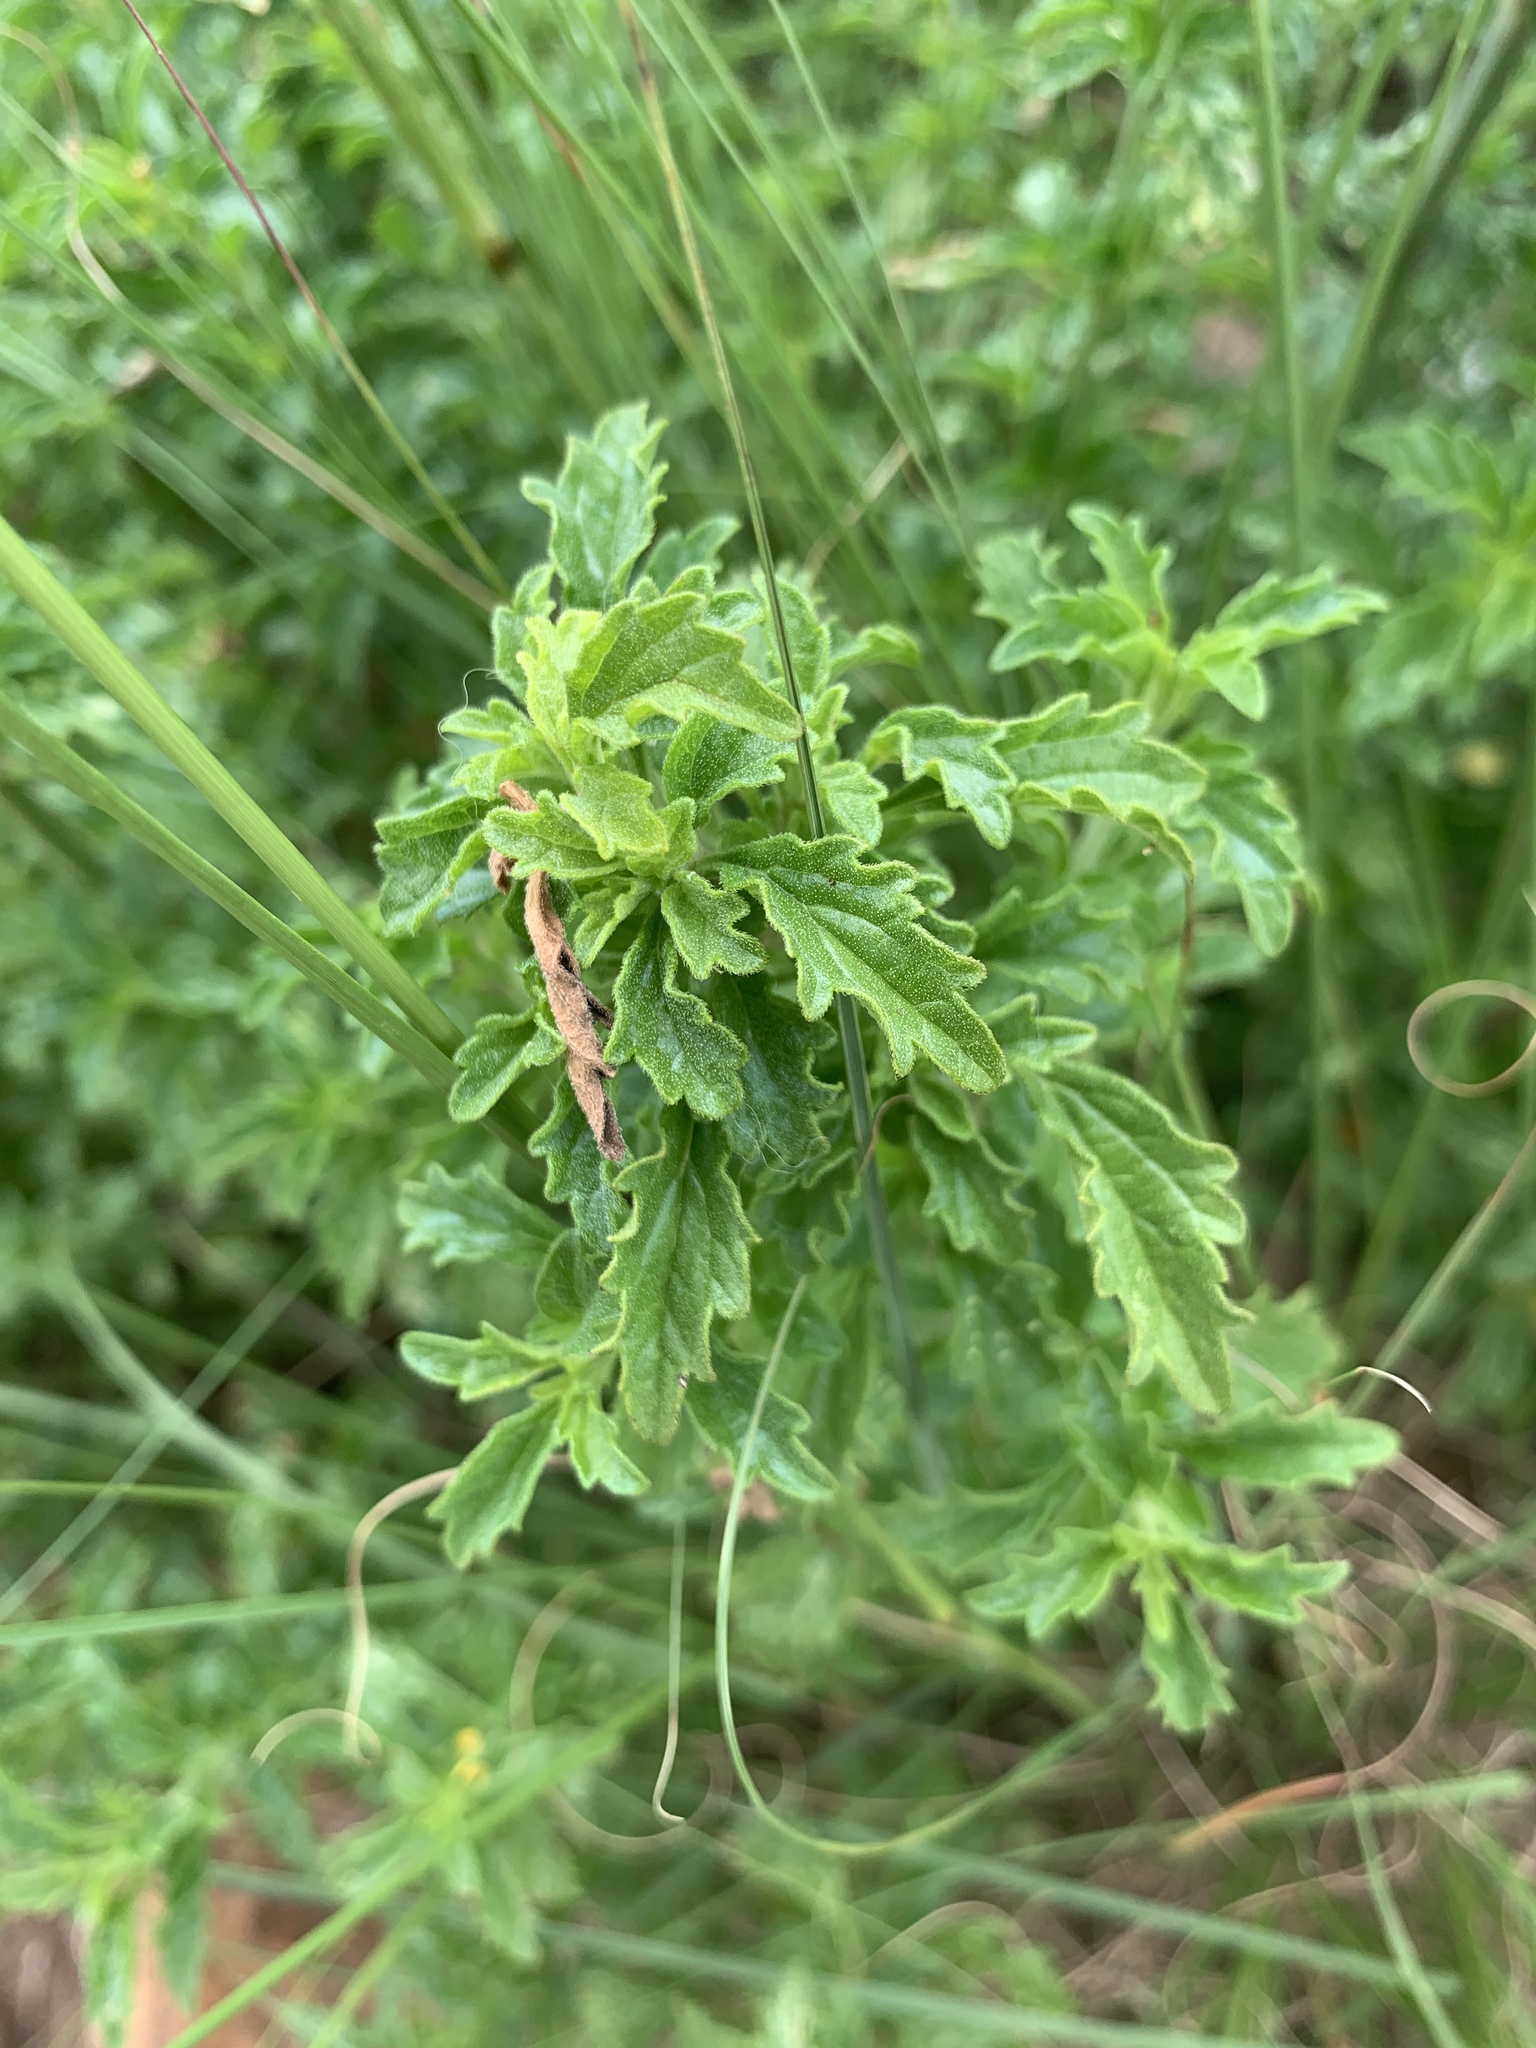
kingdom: Plantae
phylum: Tracheophyta
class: Magnoliopsida
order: Lamiales
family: Lamiaceae
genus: Leonotis
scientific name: Leonotis ocymifolia
